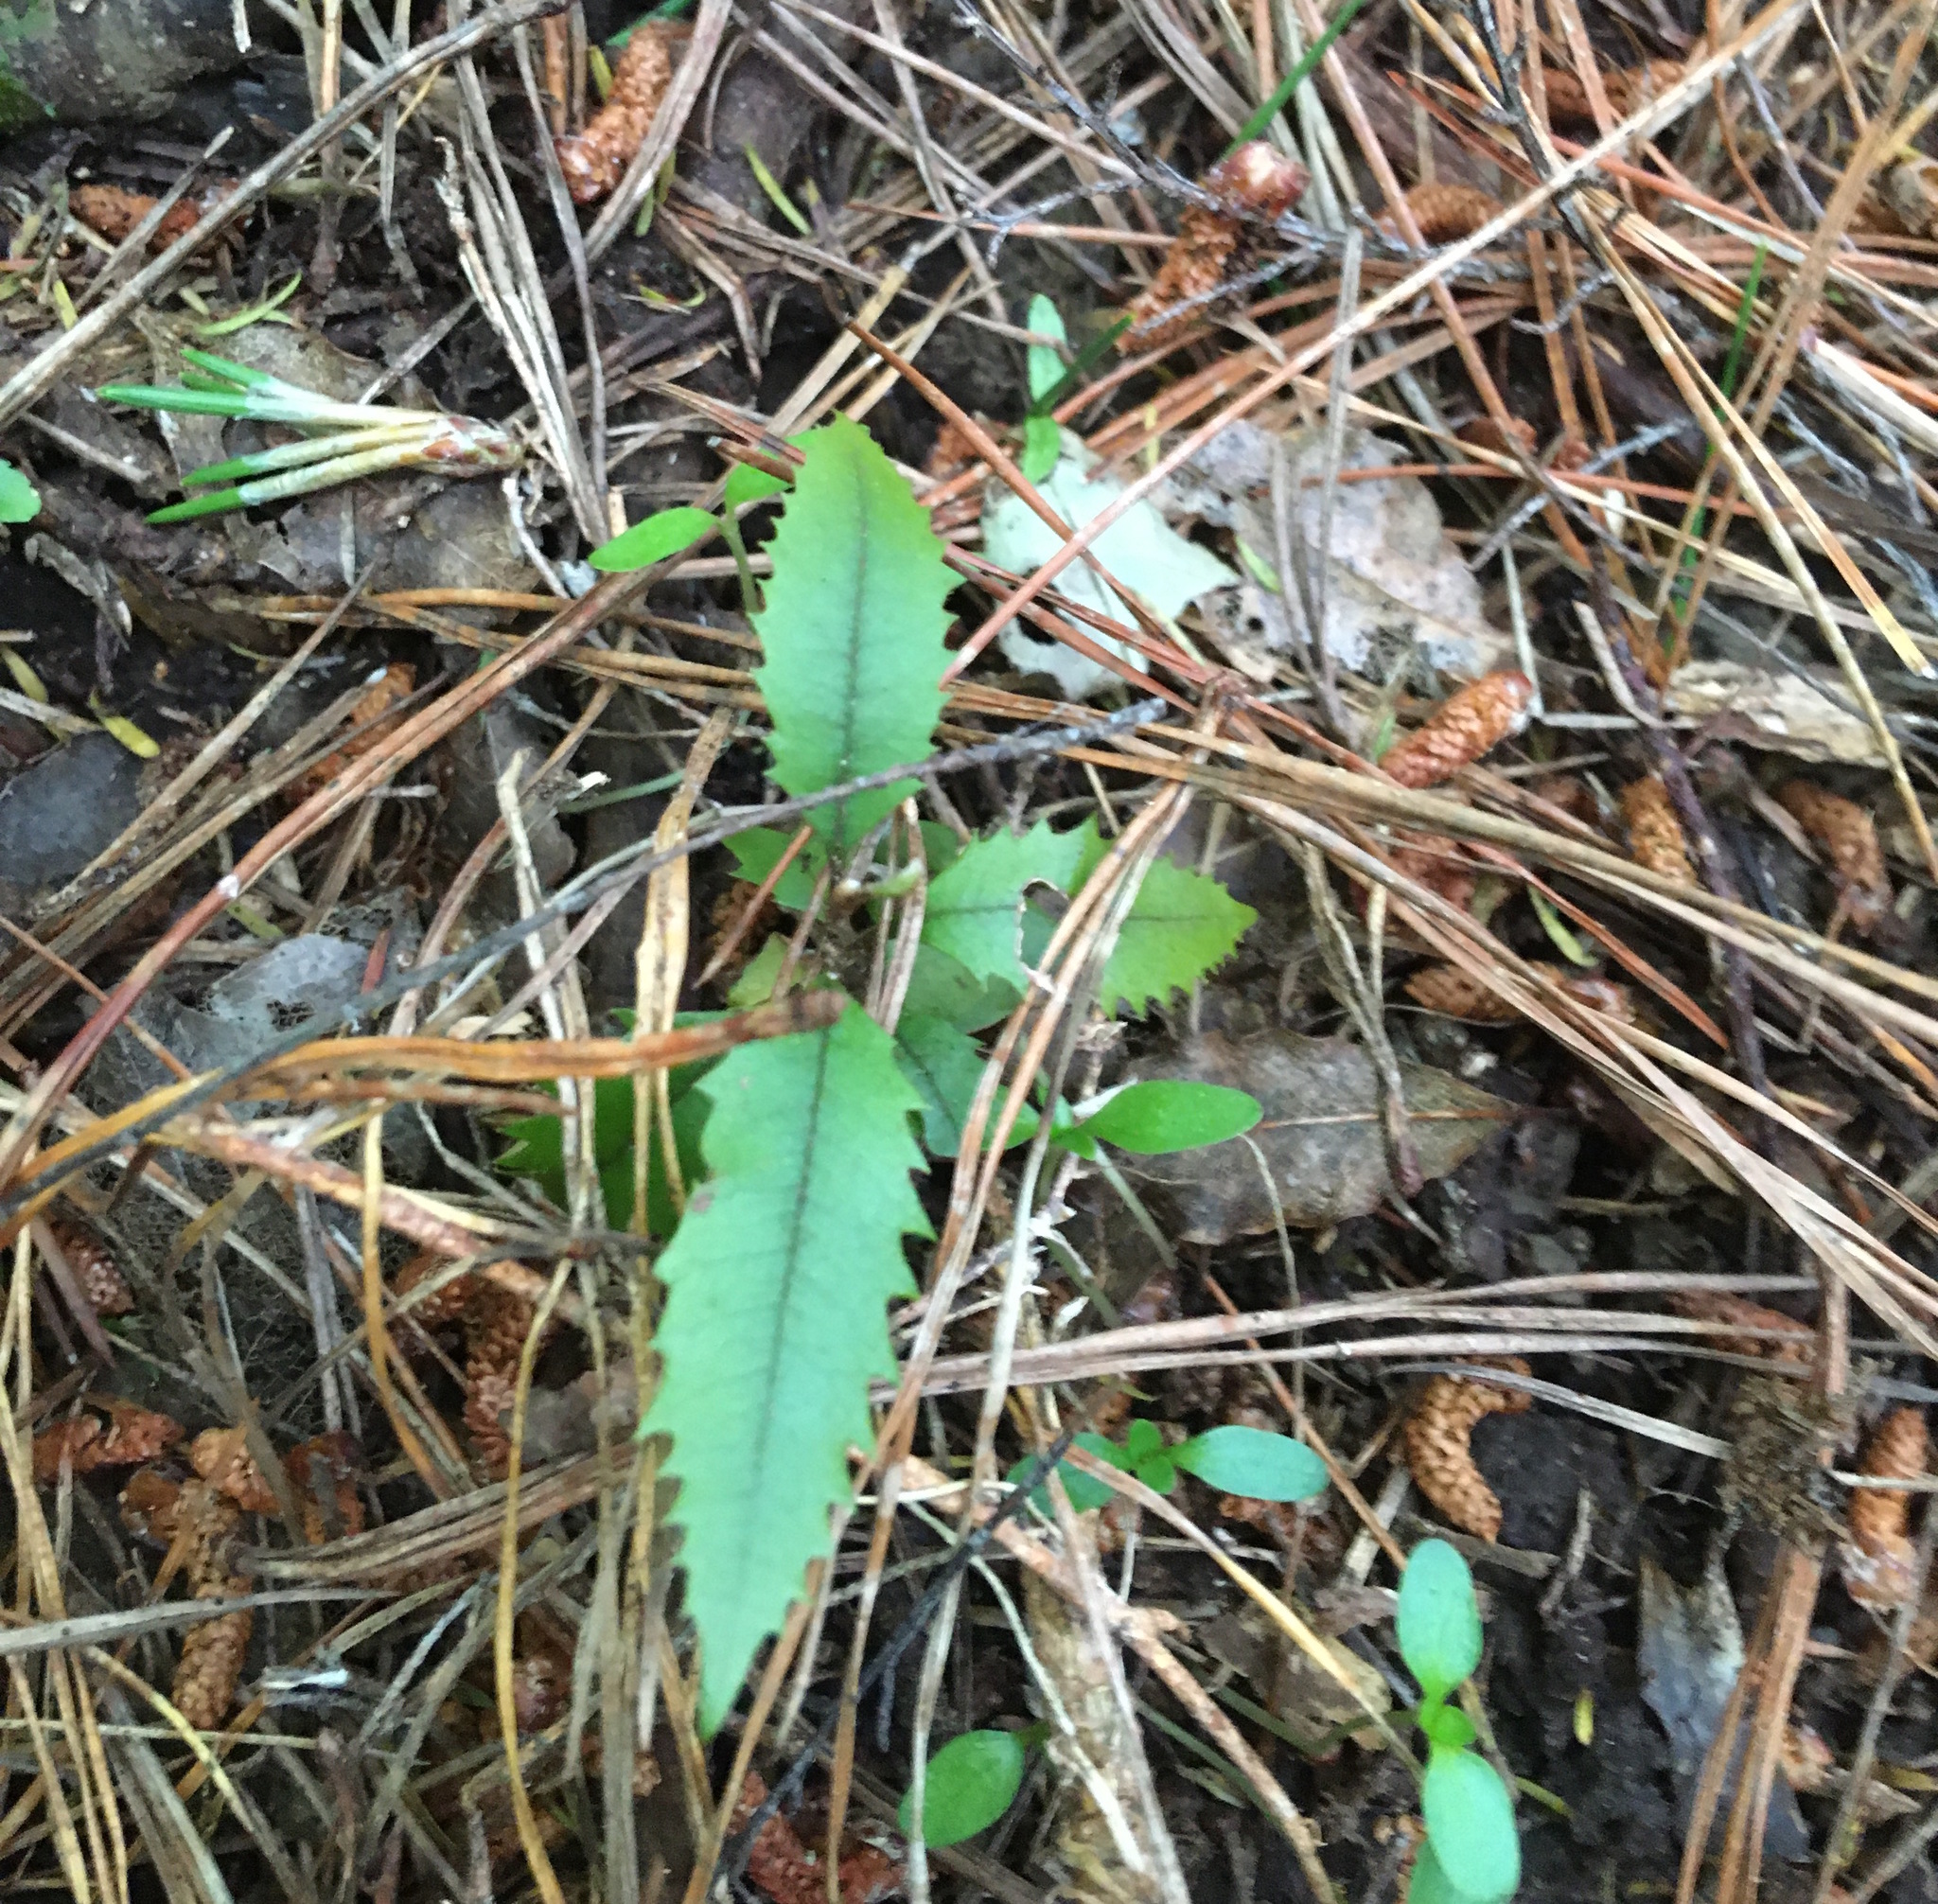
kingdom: Plantae
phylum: Tracheophyta
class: Magnoliopsida
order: Proteales
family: Proteaceae
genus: Knightia
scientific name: Knightia excelsa
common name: New zealand-honeysuckle
